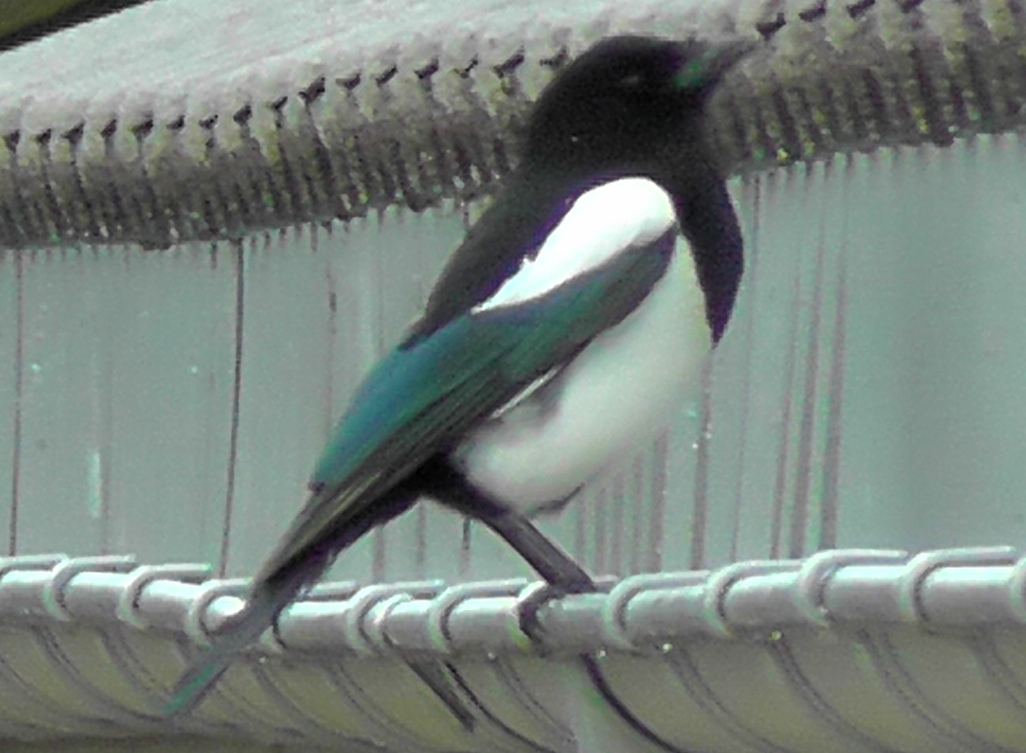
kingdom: Animalia
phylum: Chordata
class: Aves
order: Passeriformes
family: Corvidae
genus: Pica
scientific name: Pica pica
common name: Eurasian magpie
